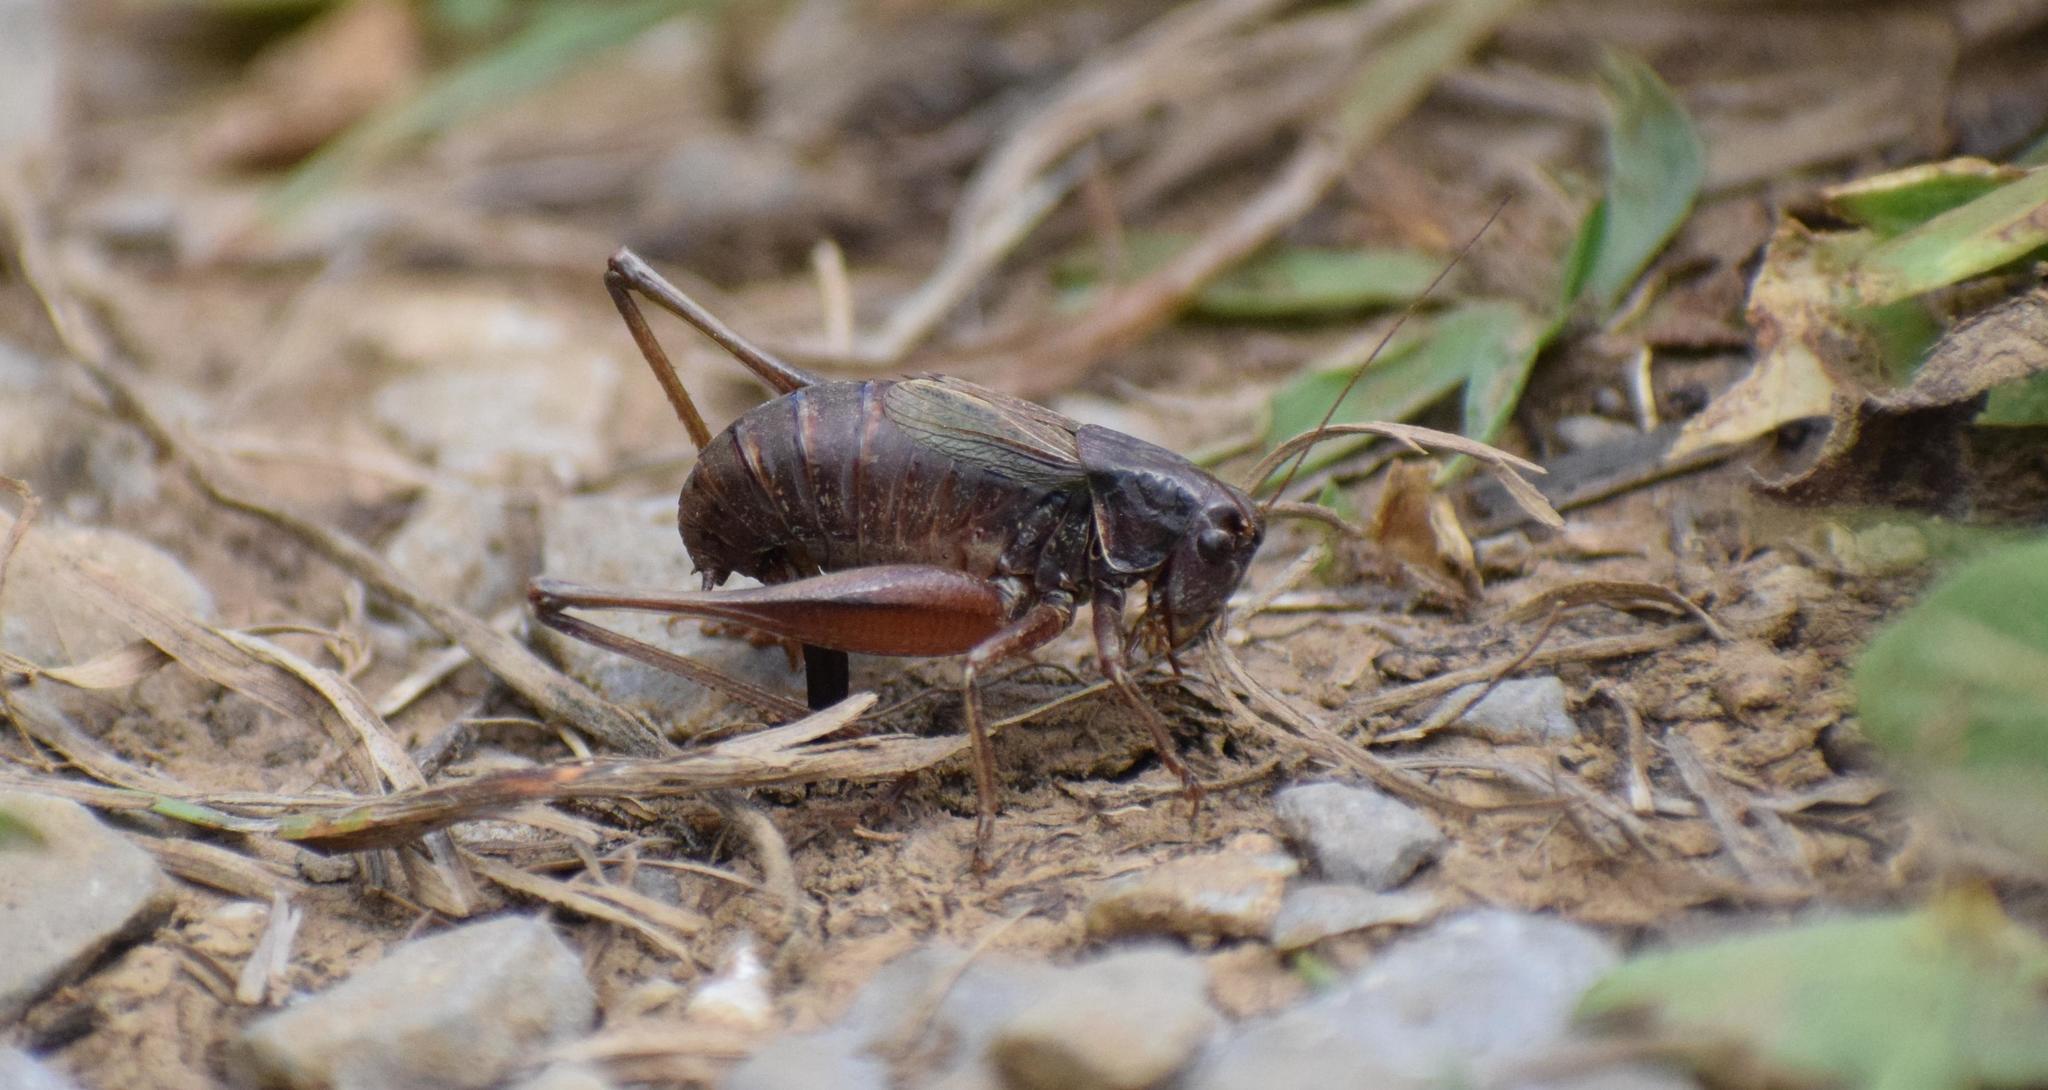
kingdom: Animalia
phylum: Arthropoda
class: Insecta
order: Orthoptera
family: Tettigoniidae
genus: Metrioptera
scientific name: Metrioptera saussuriana
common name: Purple meadow bush-cricket
